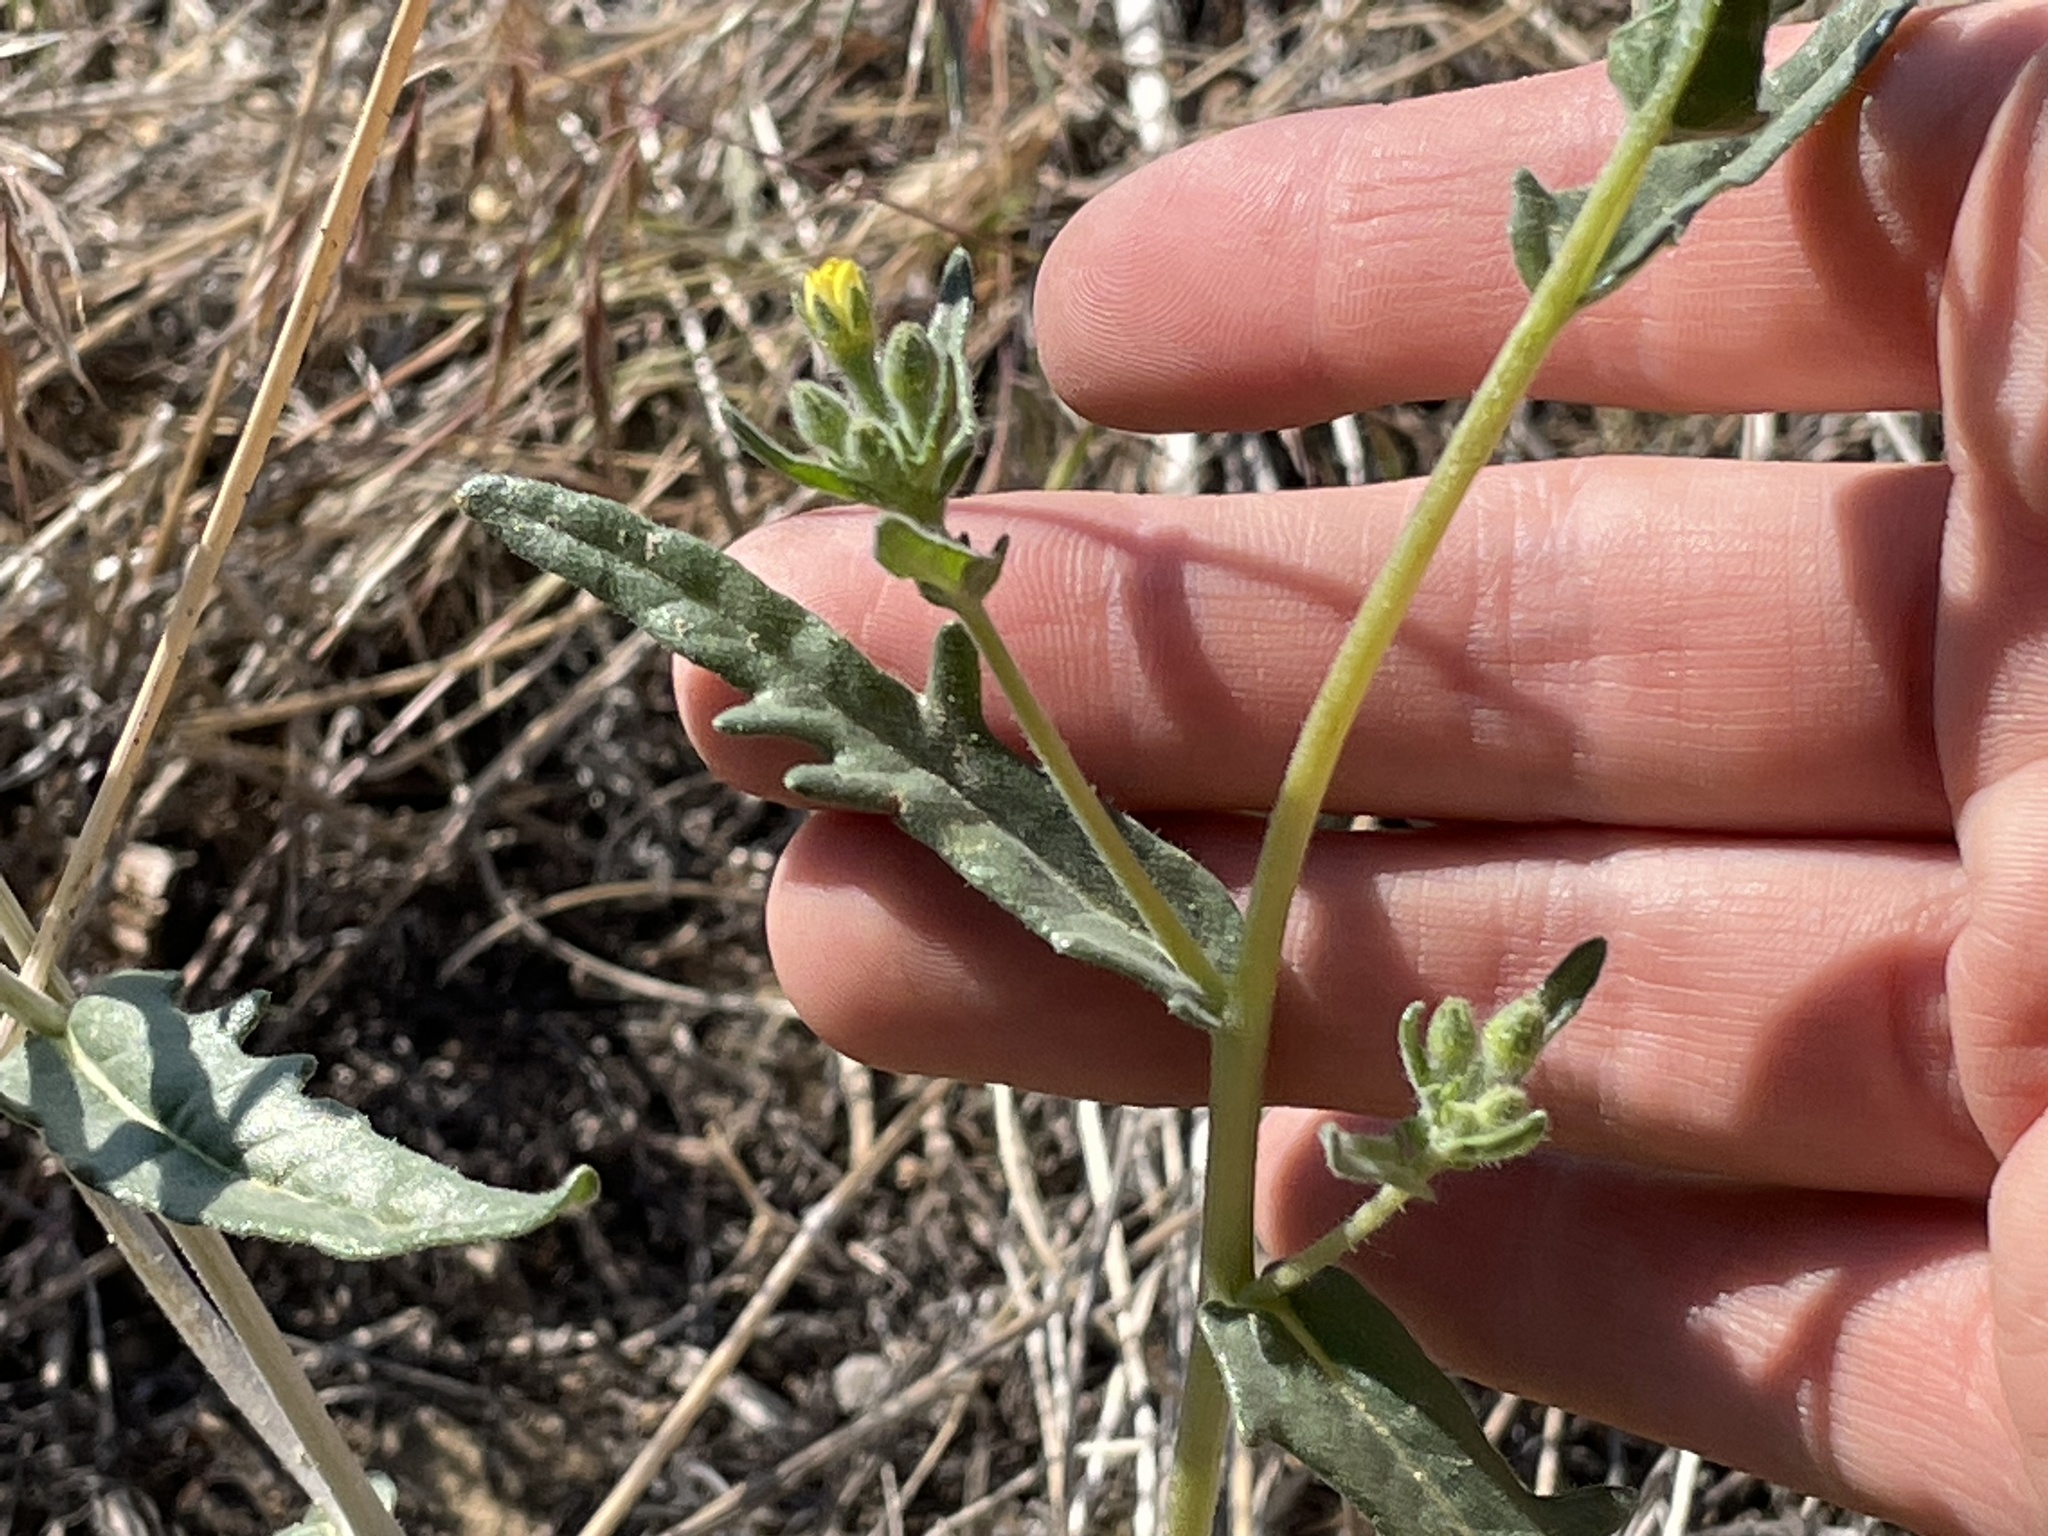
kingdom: Plantae
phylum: Tracheophyta
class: Magnoliopsida
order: Cornales
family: Loasaceae
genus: Mentzelia
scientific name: Mentzelia albicaulis
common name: White-stem blazingstar
